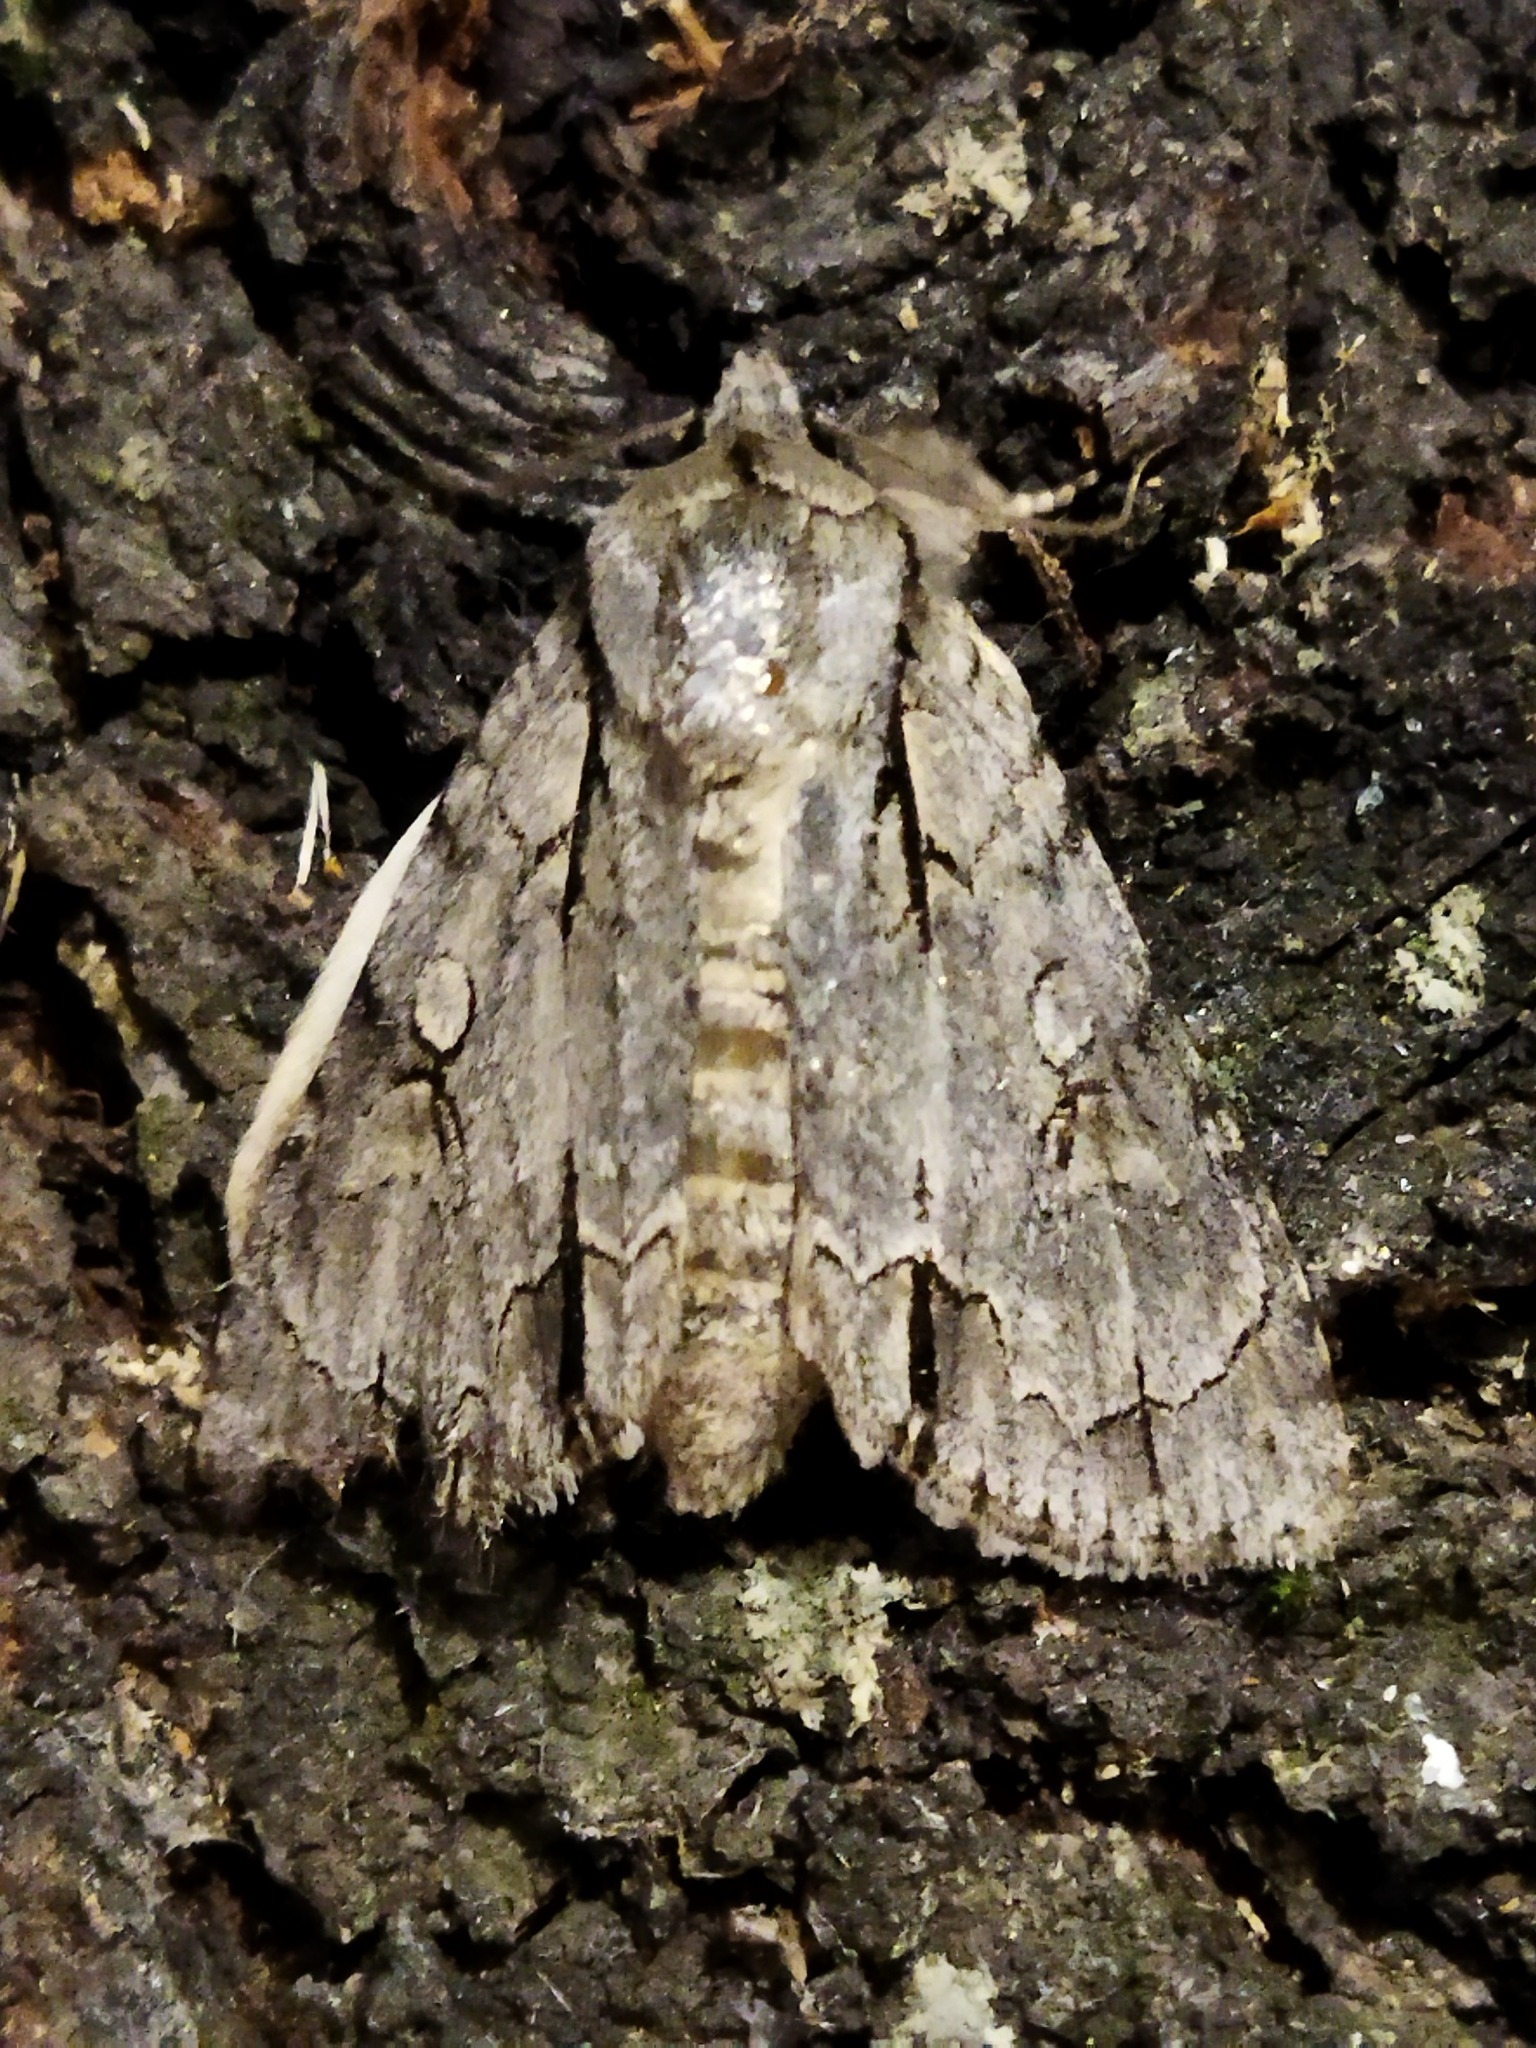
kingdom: Animalia
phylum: Arthropoda
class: Insecta
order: Lepidoptera
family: Noctuidae
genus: Acronicta
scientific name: Acronicta
